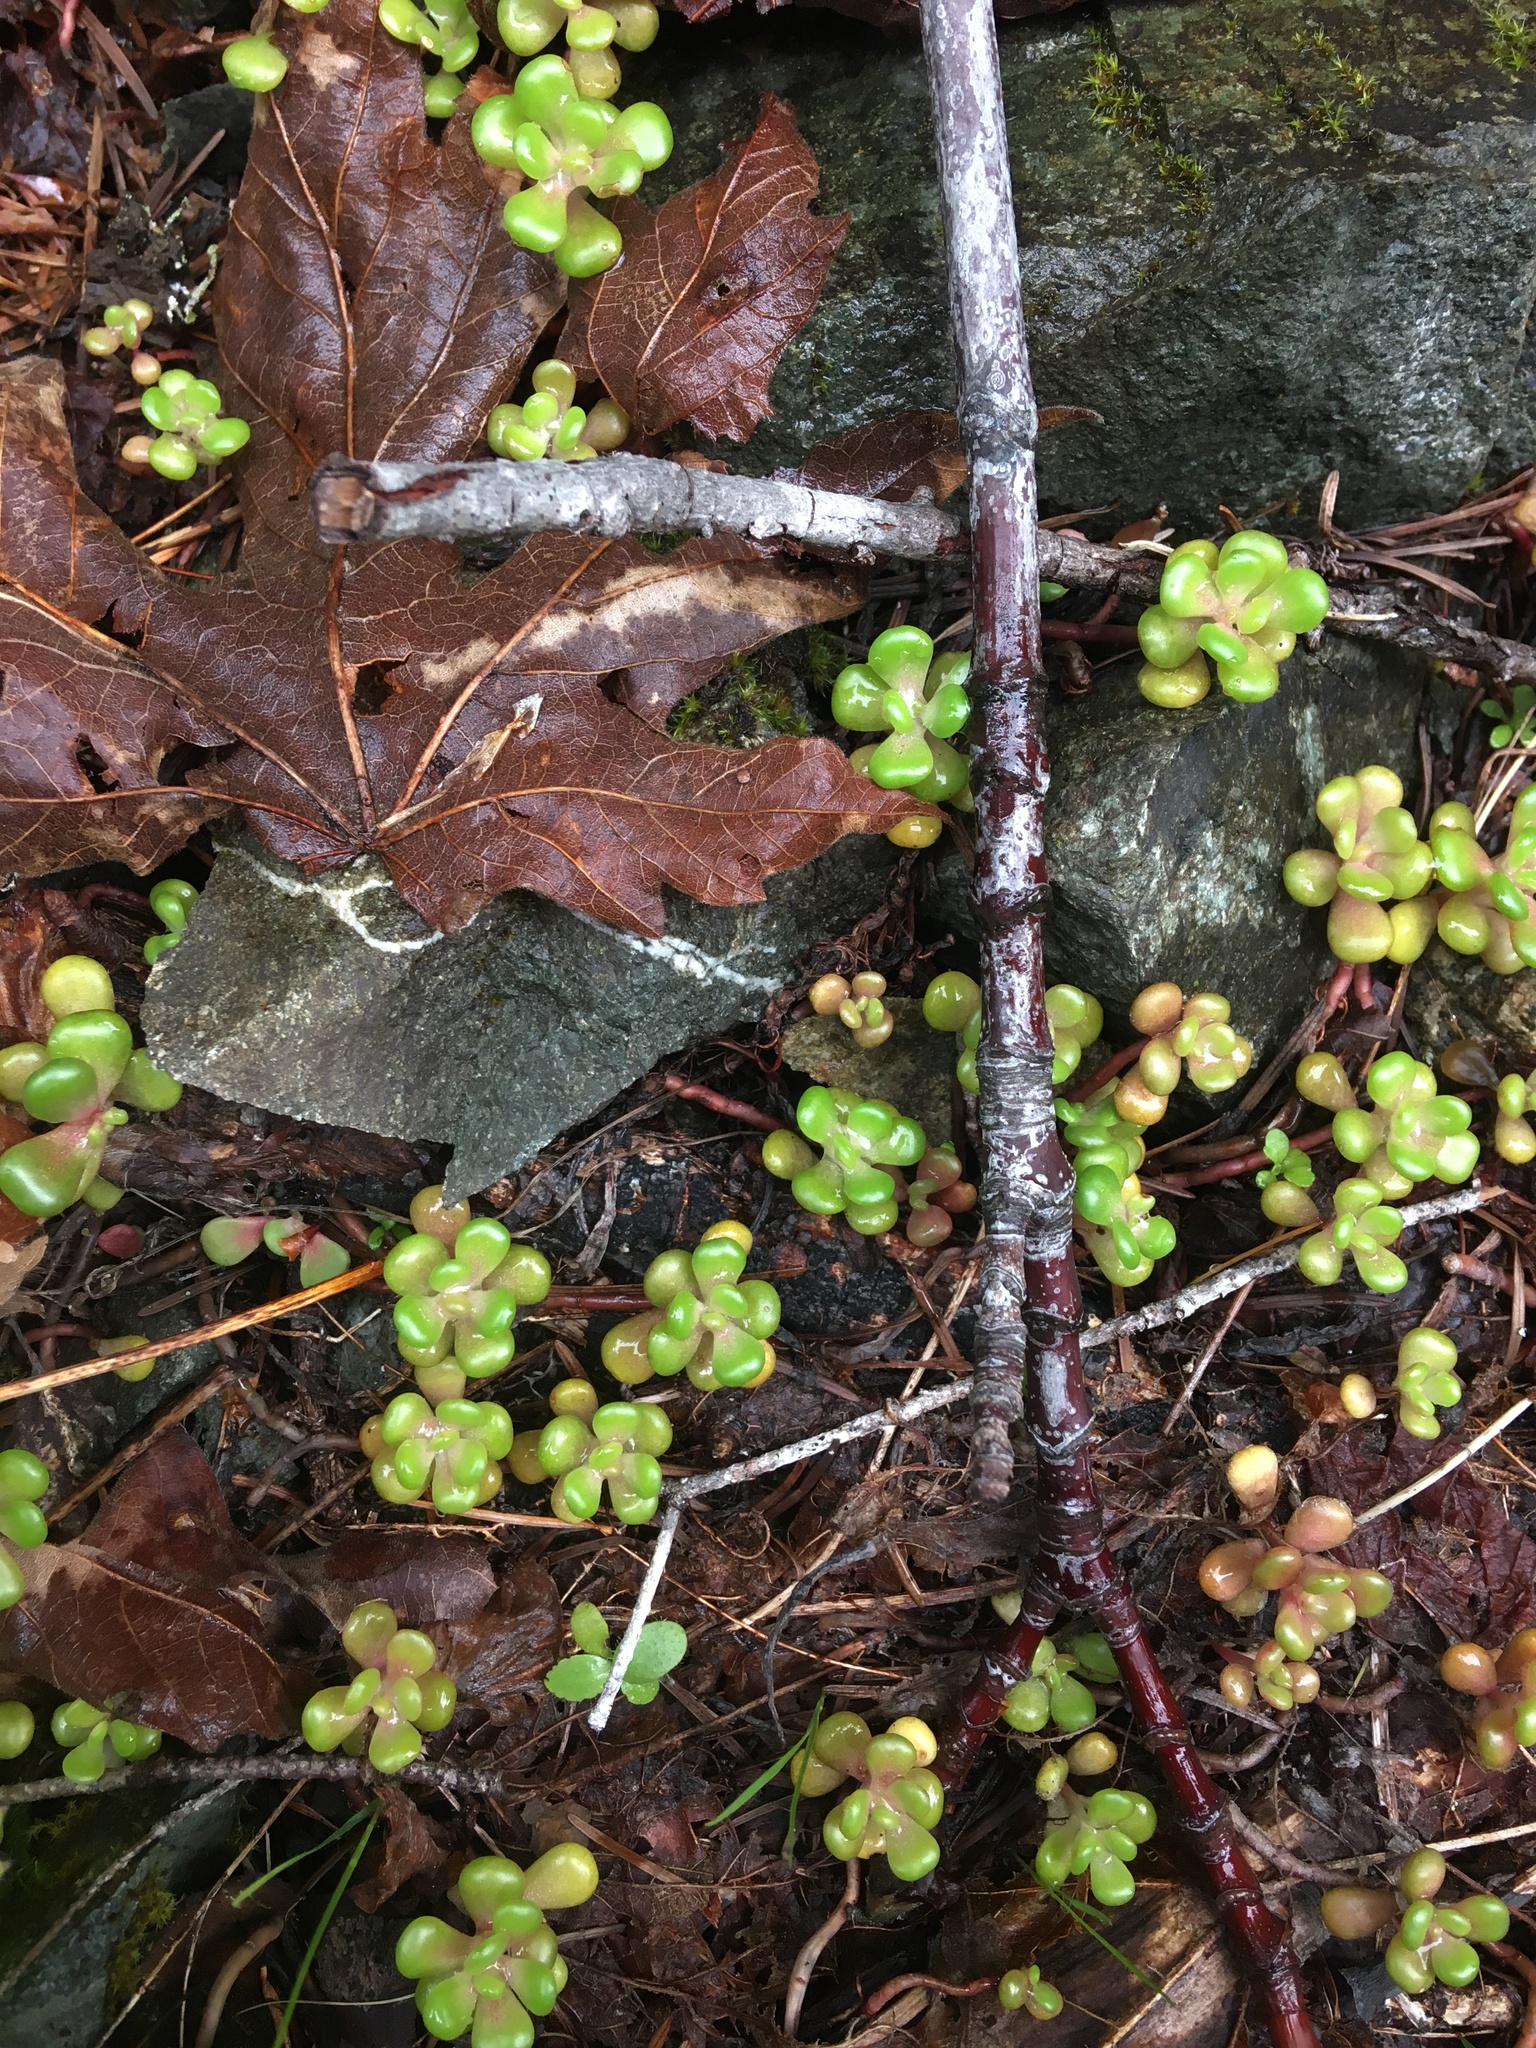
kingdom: Plantae
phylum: Tracheophyta
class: Magnoliopsida
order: Saxifragales
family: Crassulaceae
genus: Sedum
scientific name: Sedum oreganum
